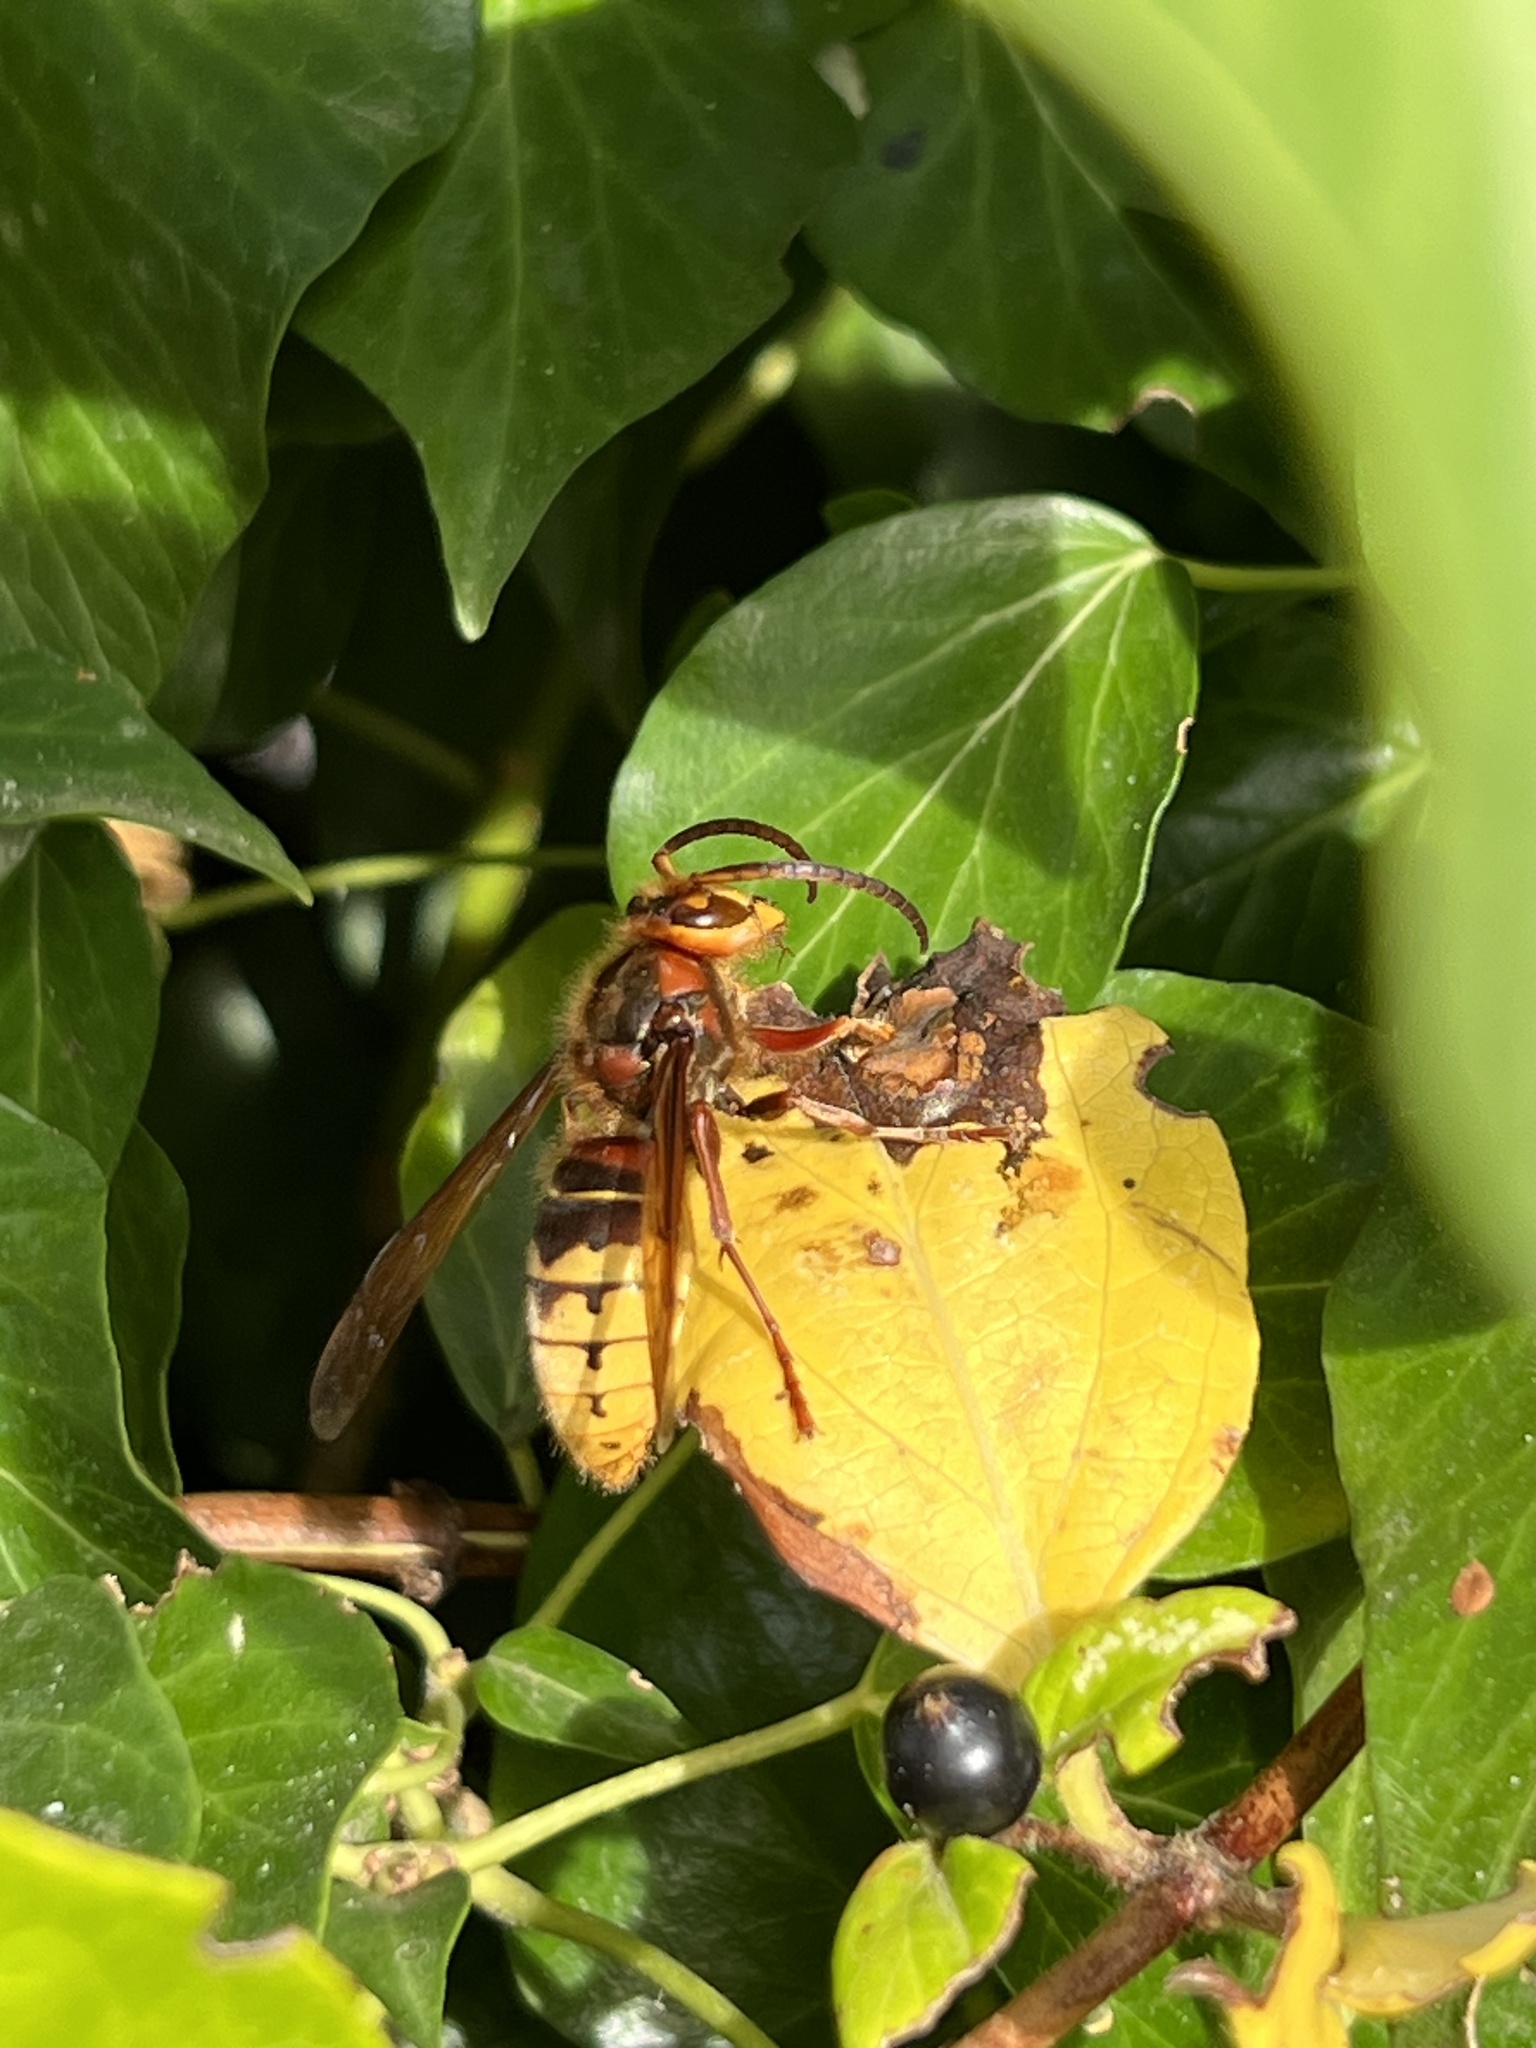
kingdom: Animalia
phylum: Arthropoda
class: Insecta
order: Hymenoptera
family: Vespidae
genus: Vespa
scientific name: Vespa crabro
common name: Hornet
